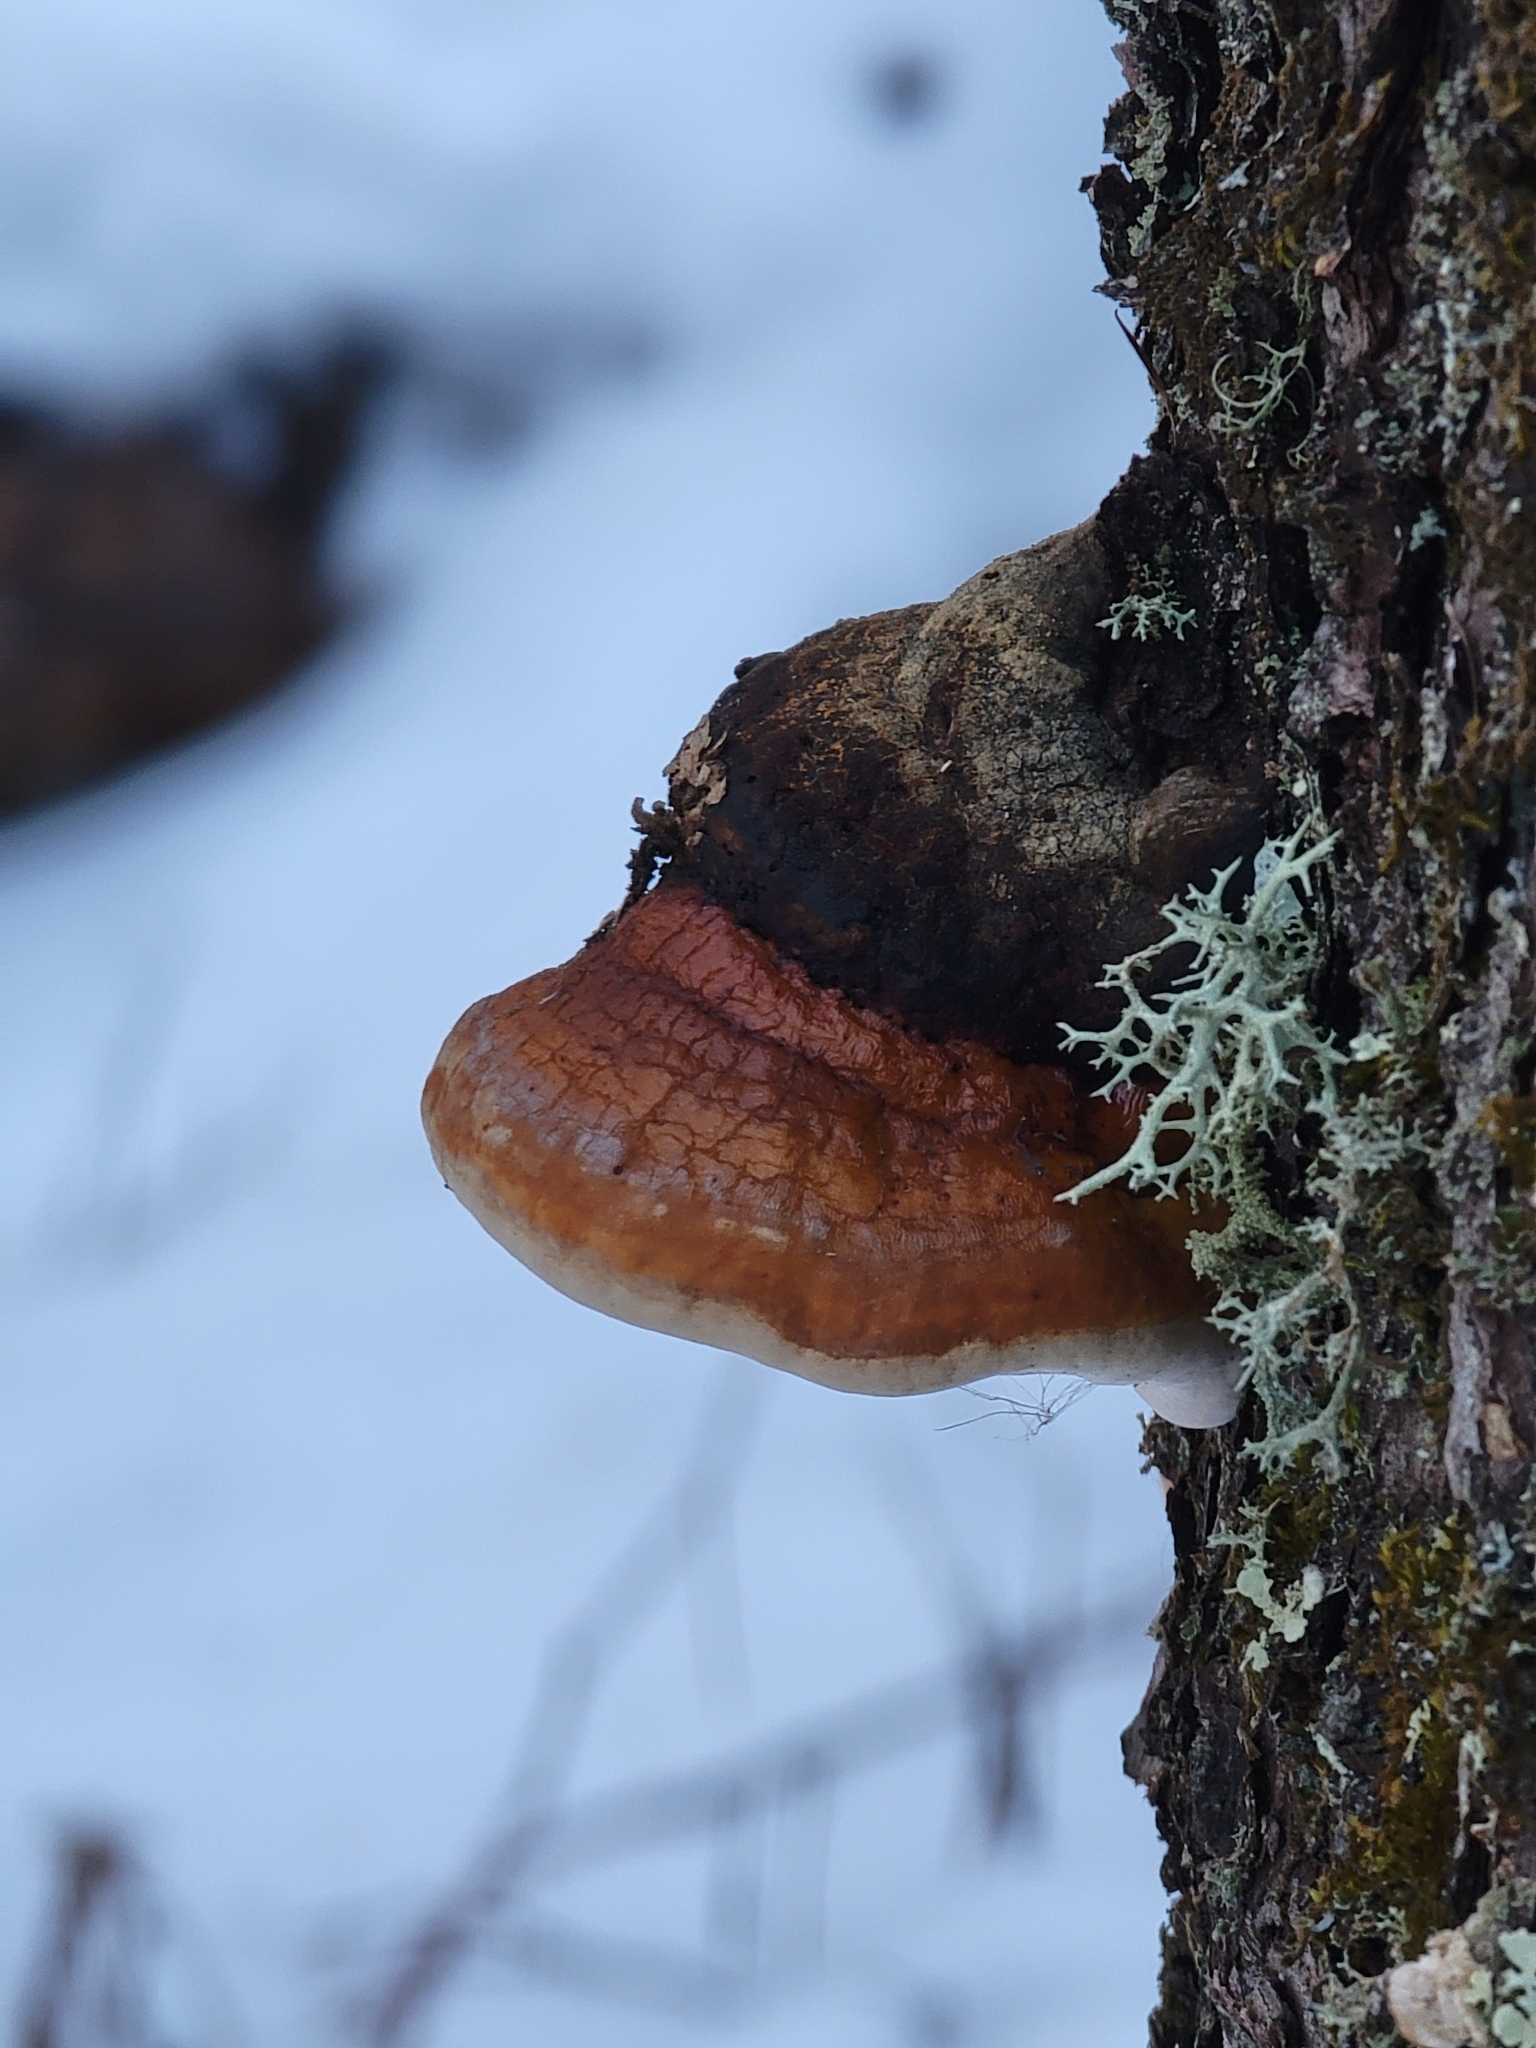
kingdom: Fungi
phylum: Basidiomycota
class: Agaricomycetes
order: Polyporales
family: Fomitopsidaceae
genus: Fomitopsis
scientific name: Fomitopsis mounceae
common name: Northern red belt
